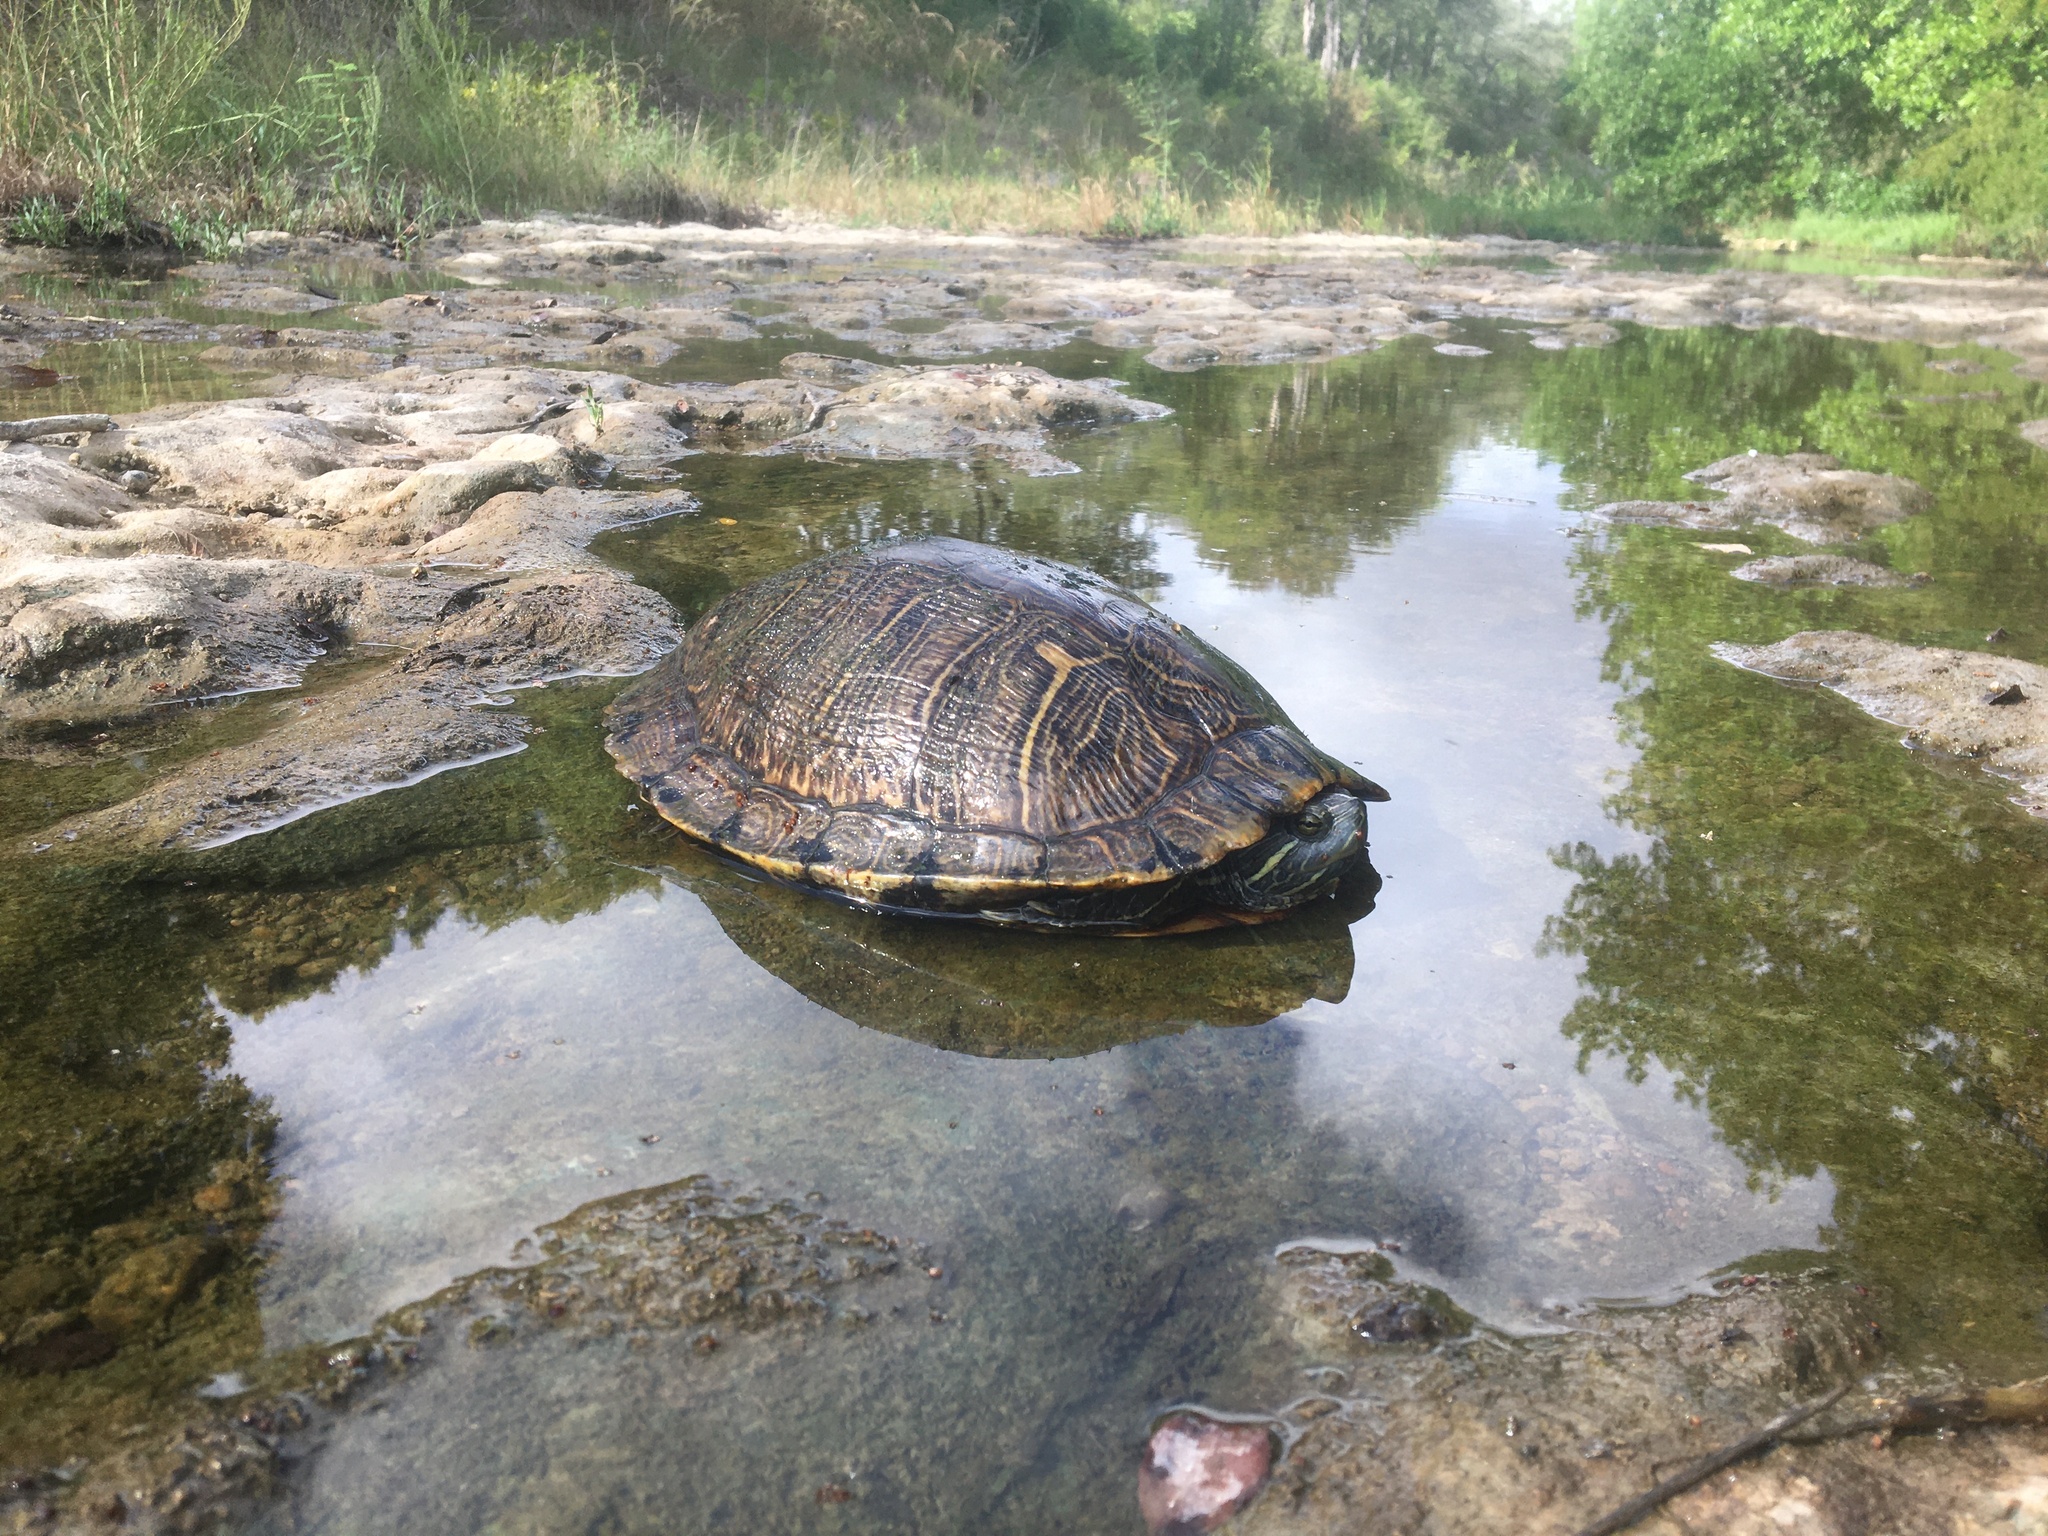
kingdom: Animalia
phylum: Chordata
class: Testudines
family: Emydidae
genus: Trachemys
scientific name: Trachemys scripta
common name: Slider
